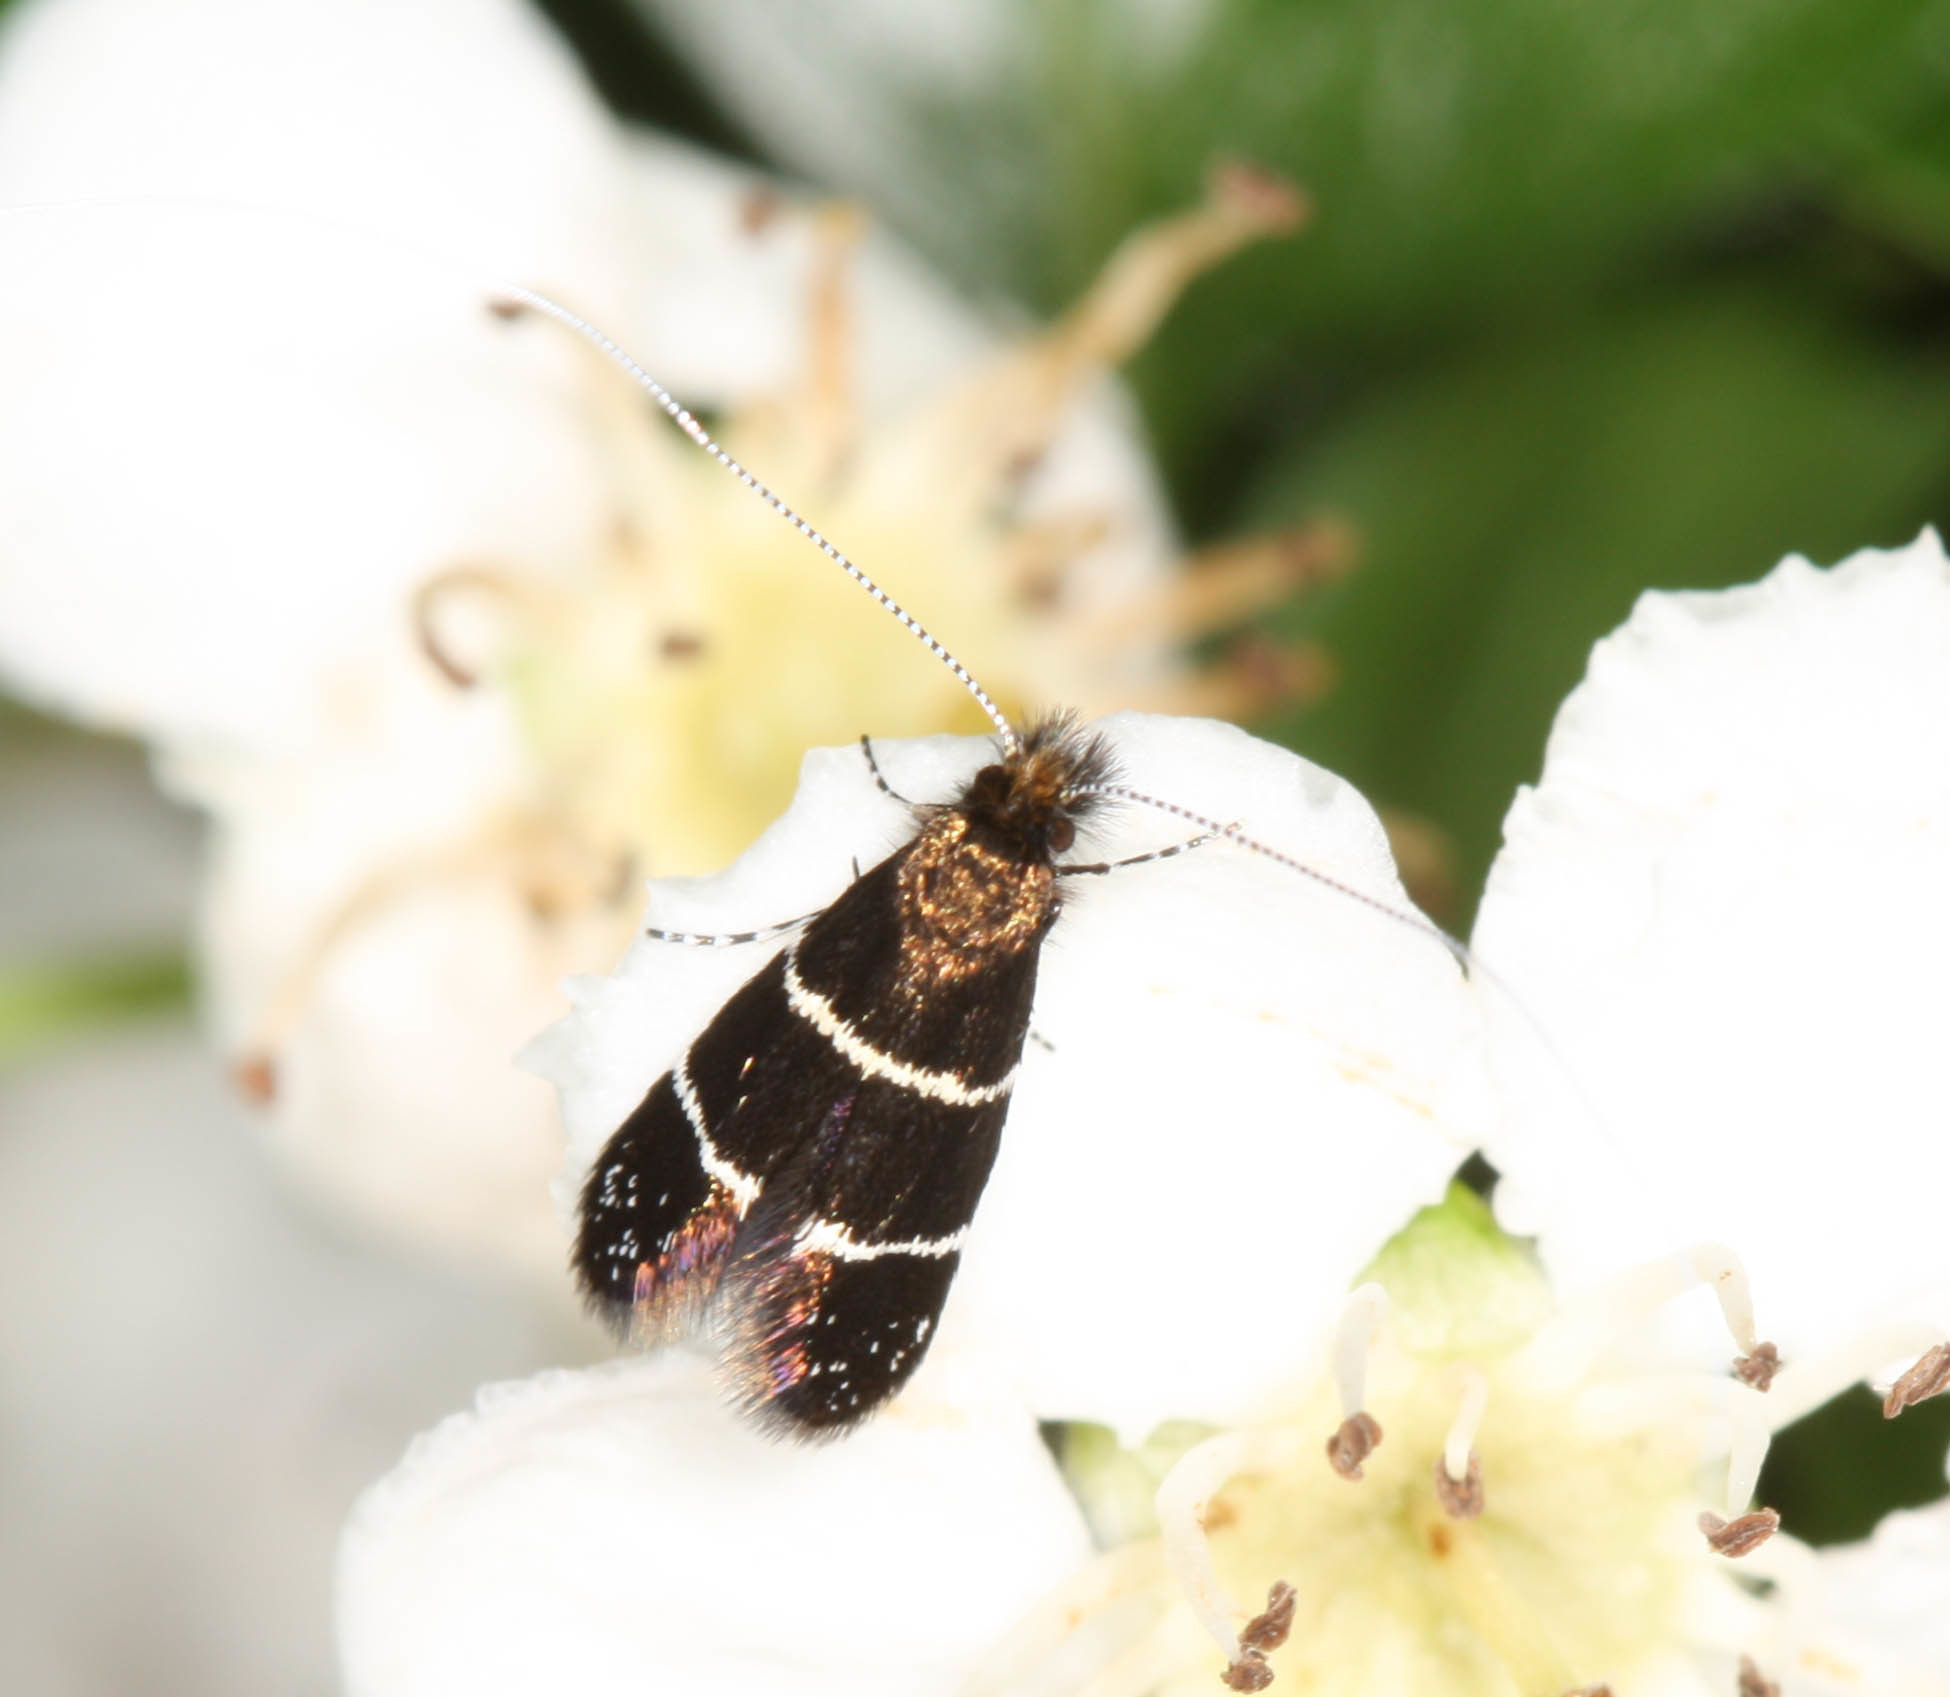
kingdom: Animalia
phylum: Arthropoda
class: Insecta
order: Lepidoptera
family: Adelidae
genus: Adela
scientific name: Adela septentrionella
